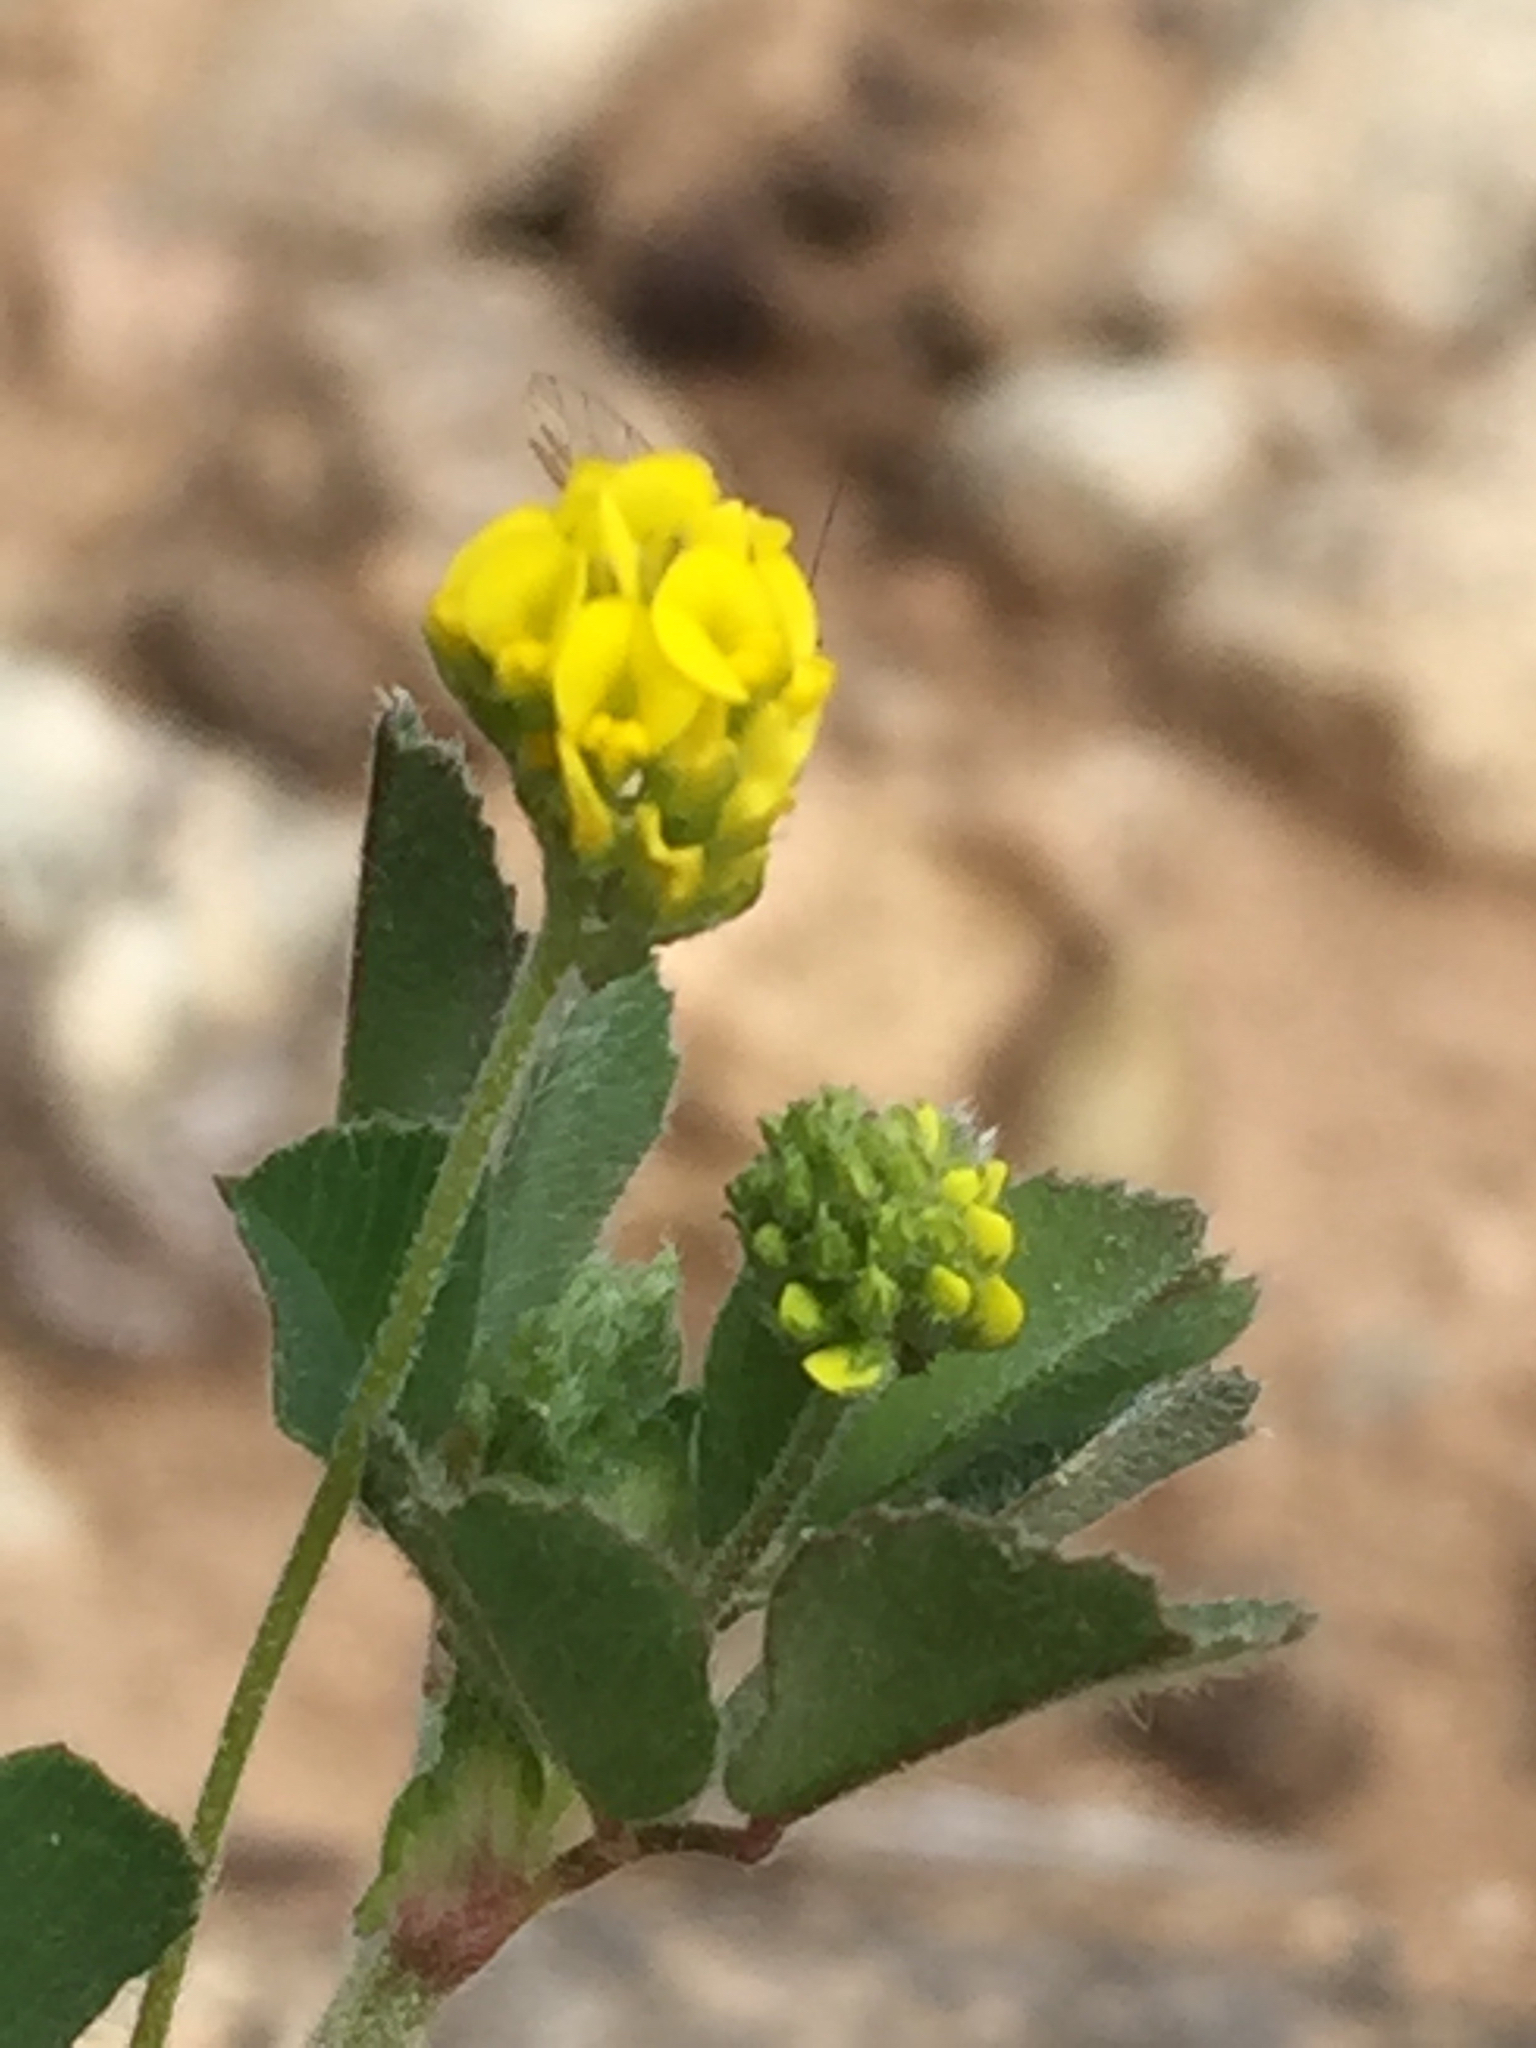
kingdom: Plantae
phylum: Tracheophyta
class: Magnoliopsida
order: Fabales
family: Fabaceae
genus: Medicago
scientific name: Medicago lupulina
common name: Black medick
